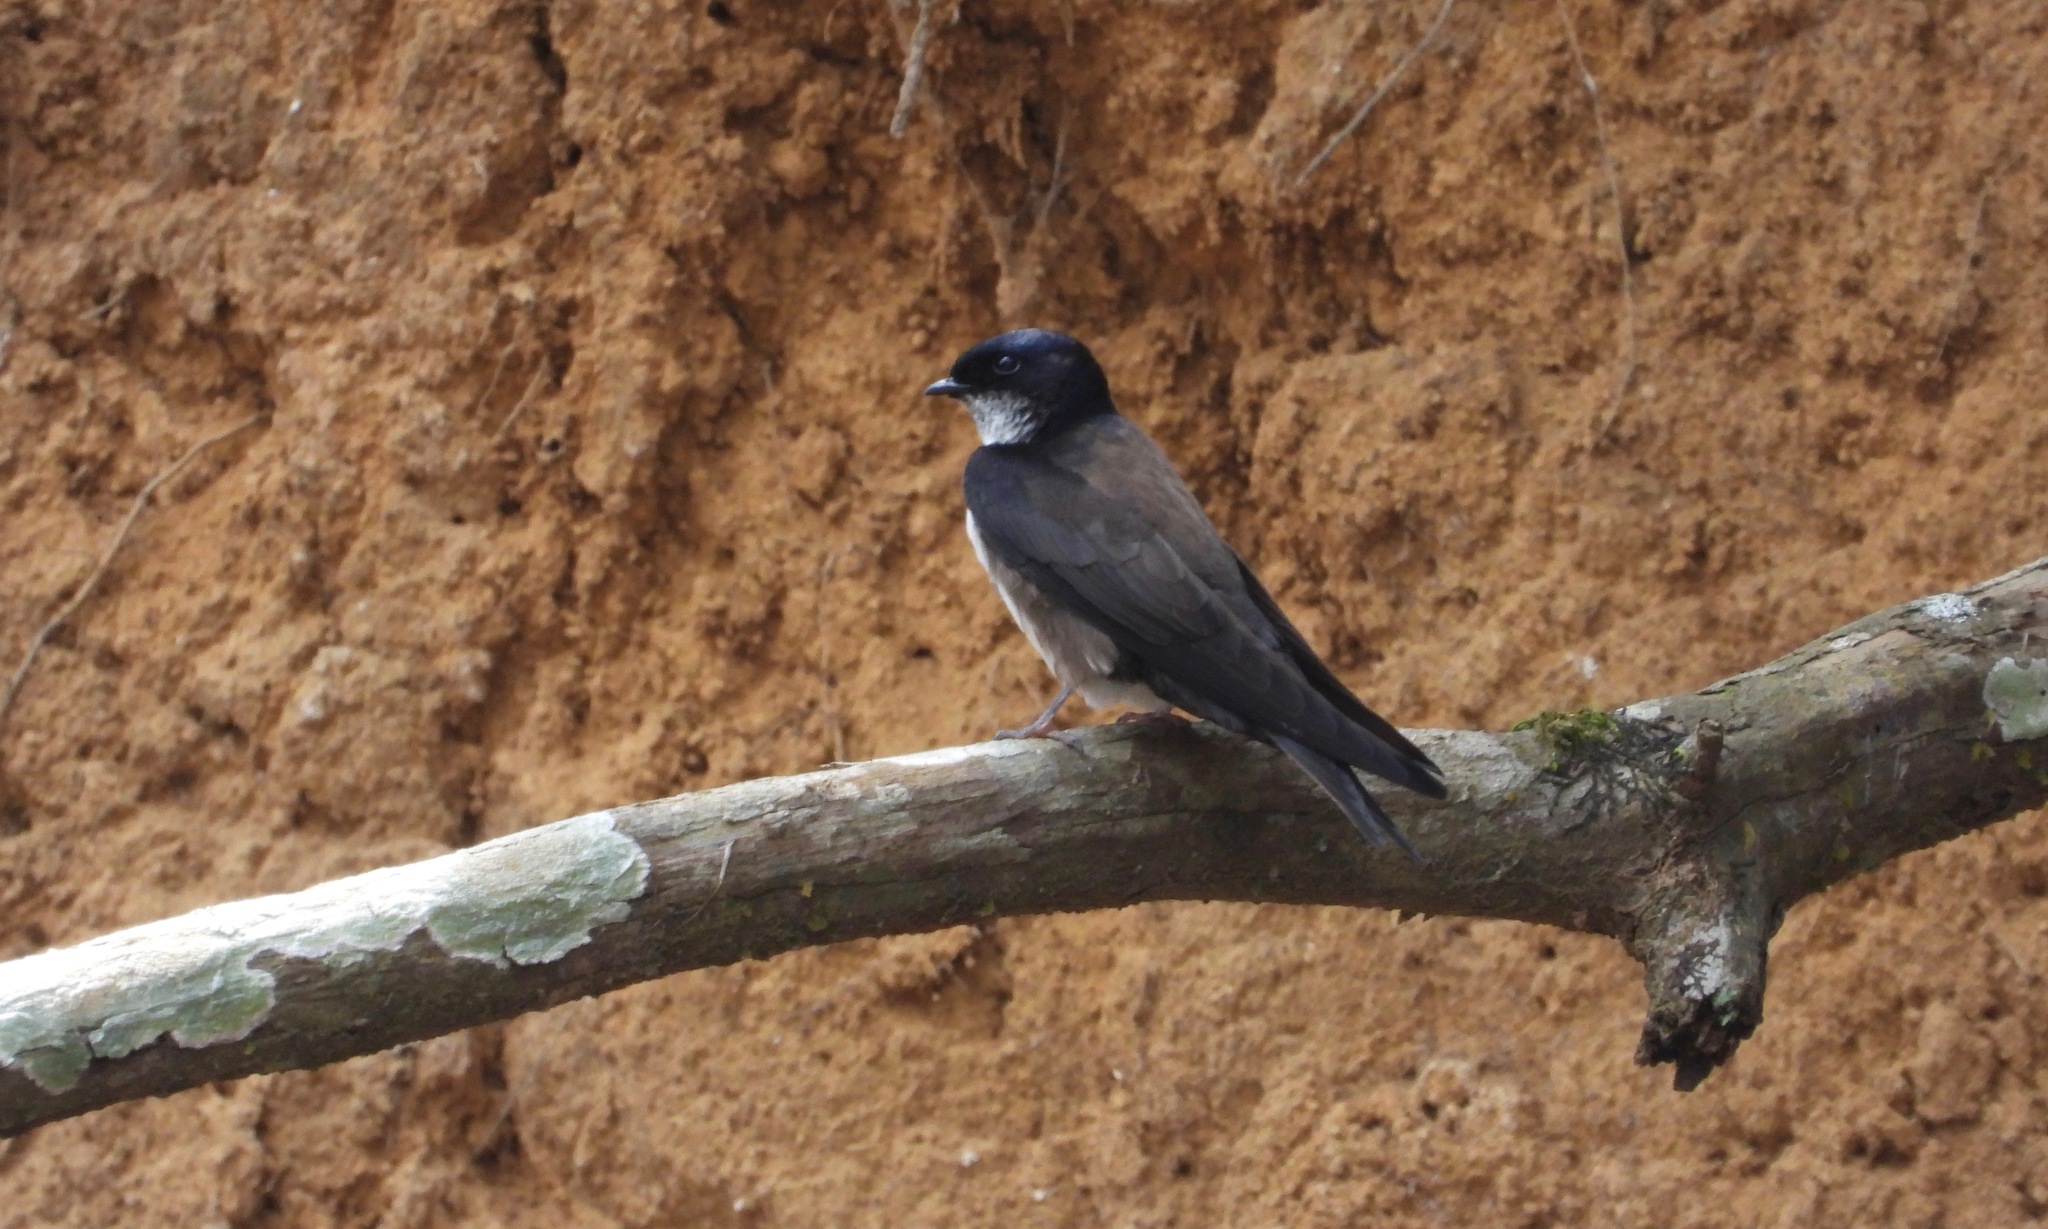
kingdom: Animalia
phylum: Chordata
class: Aves
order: Passeriformes
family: Hirundinidae
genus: Notiochelidon
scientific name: Notiochelidon pileata
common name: Black-capped swallow
